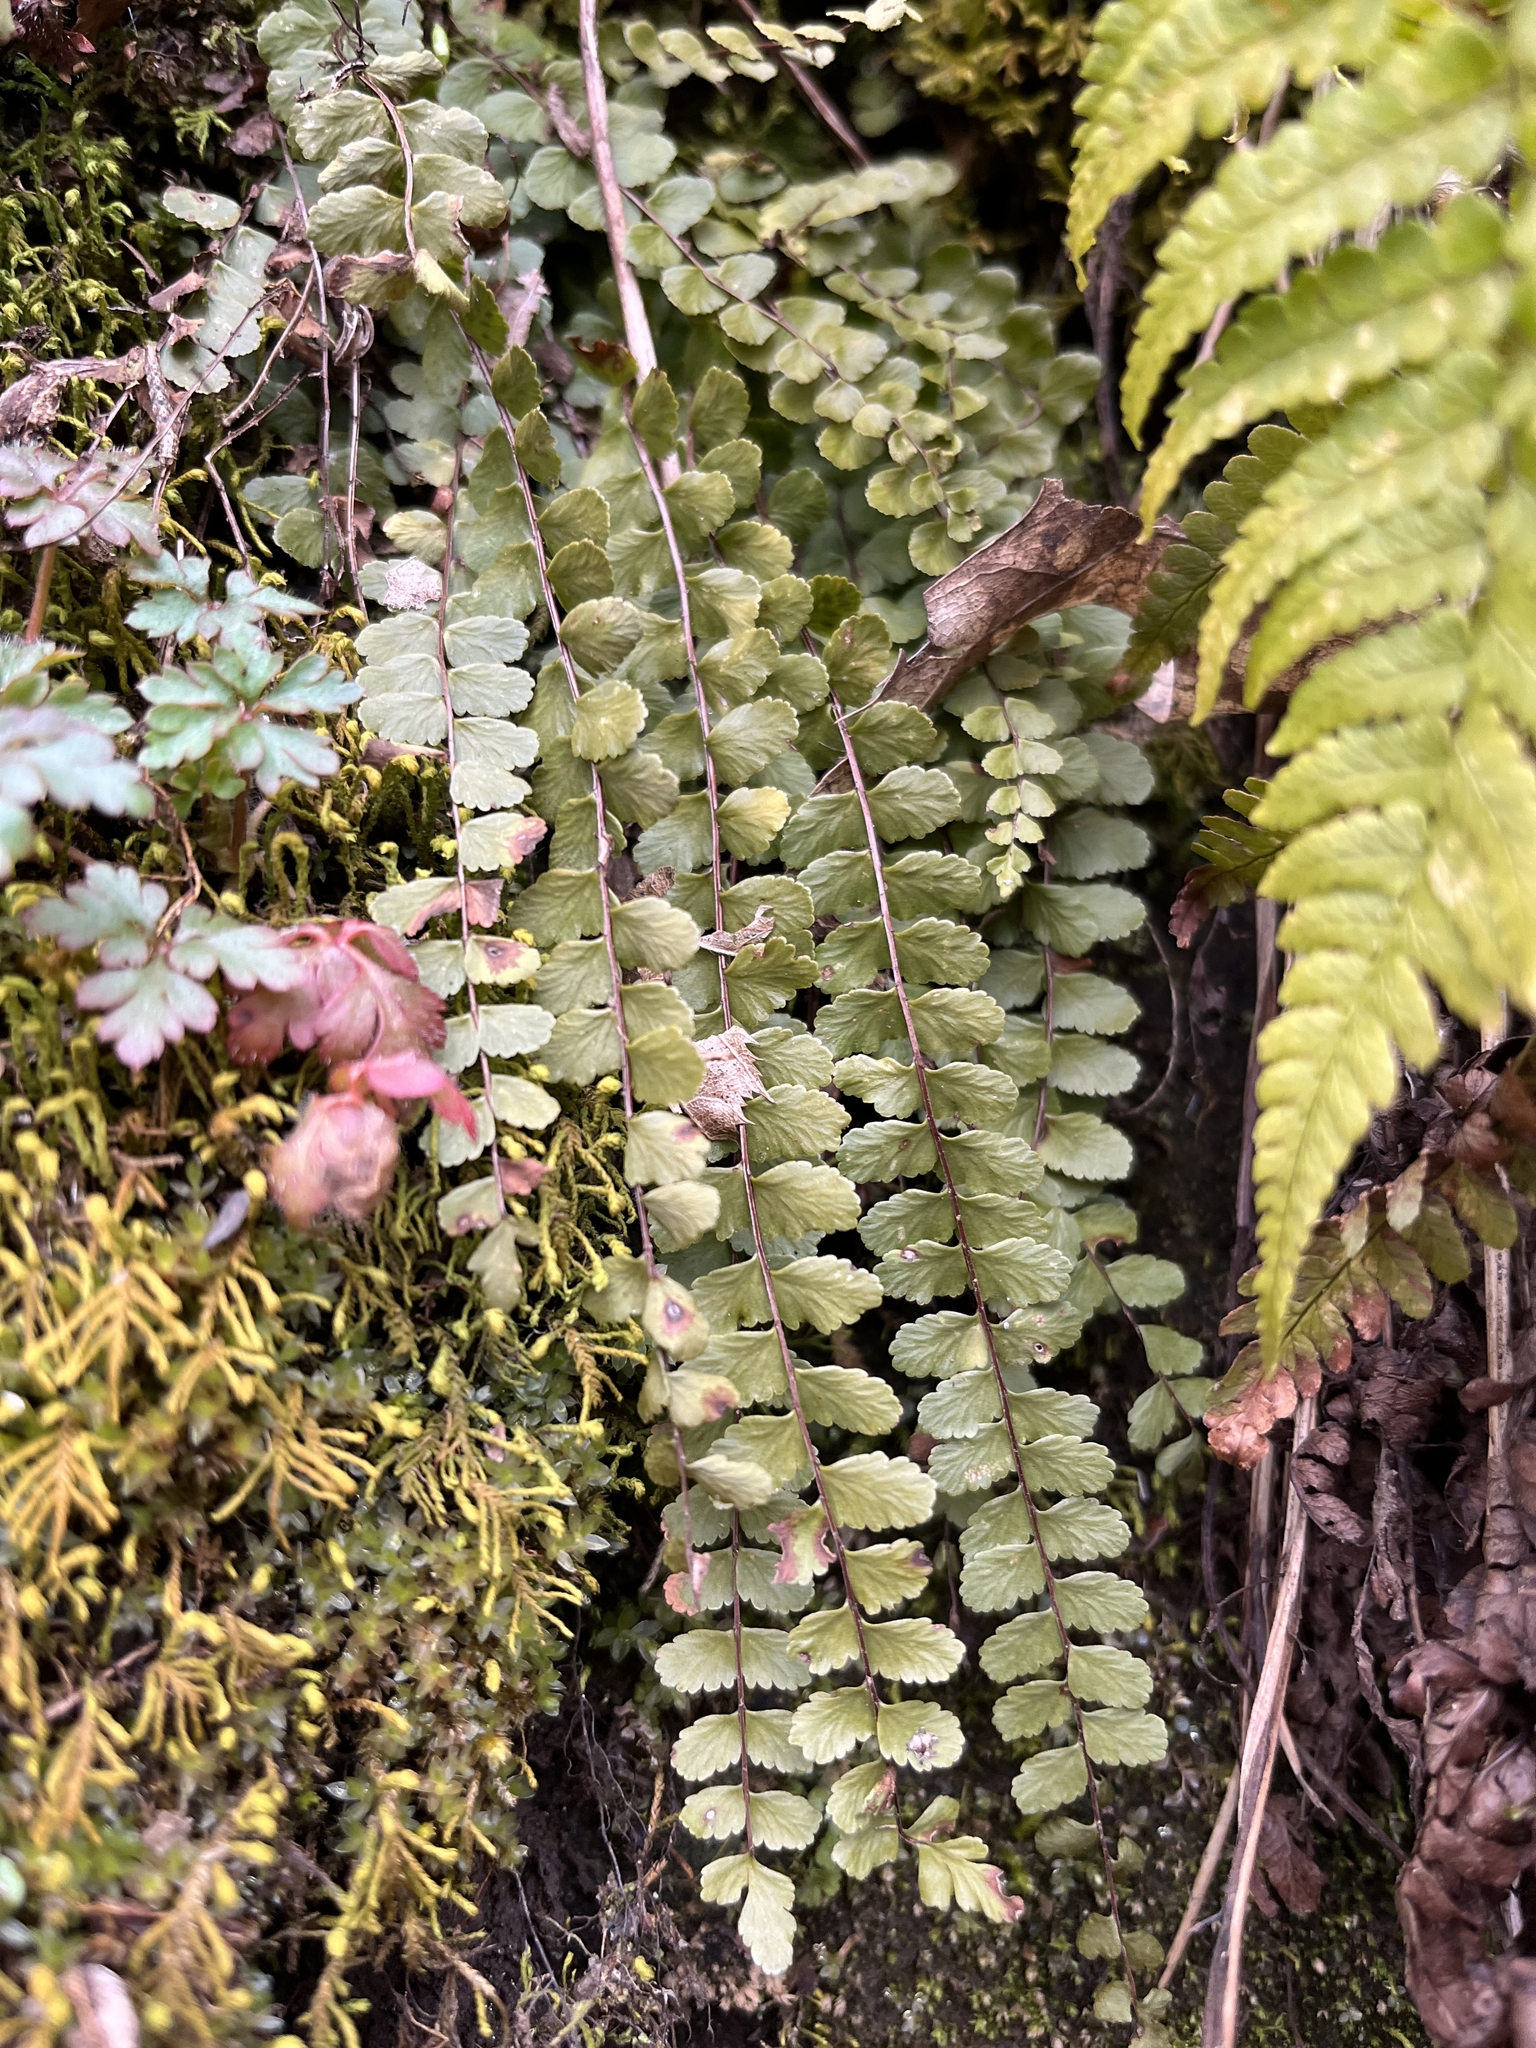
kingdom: Plantae
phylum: Tracheophyta
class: Polypodiopsida
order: Polypodiales
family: Aspleniaceae
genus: Asplenium
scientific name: Asplenium trichomanes
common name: Maidenhair spleenwort
